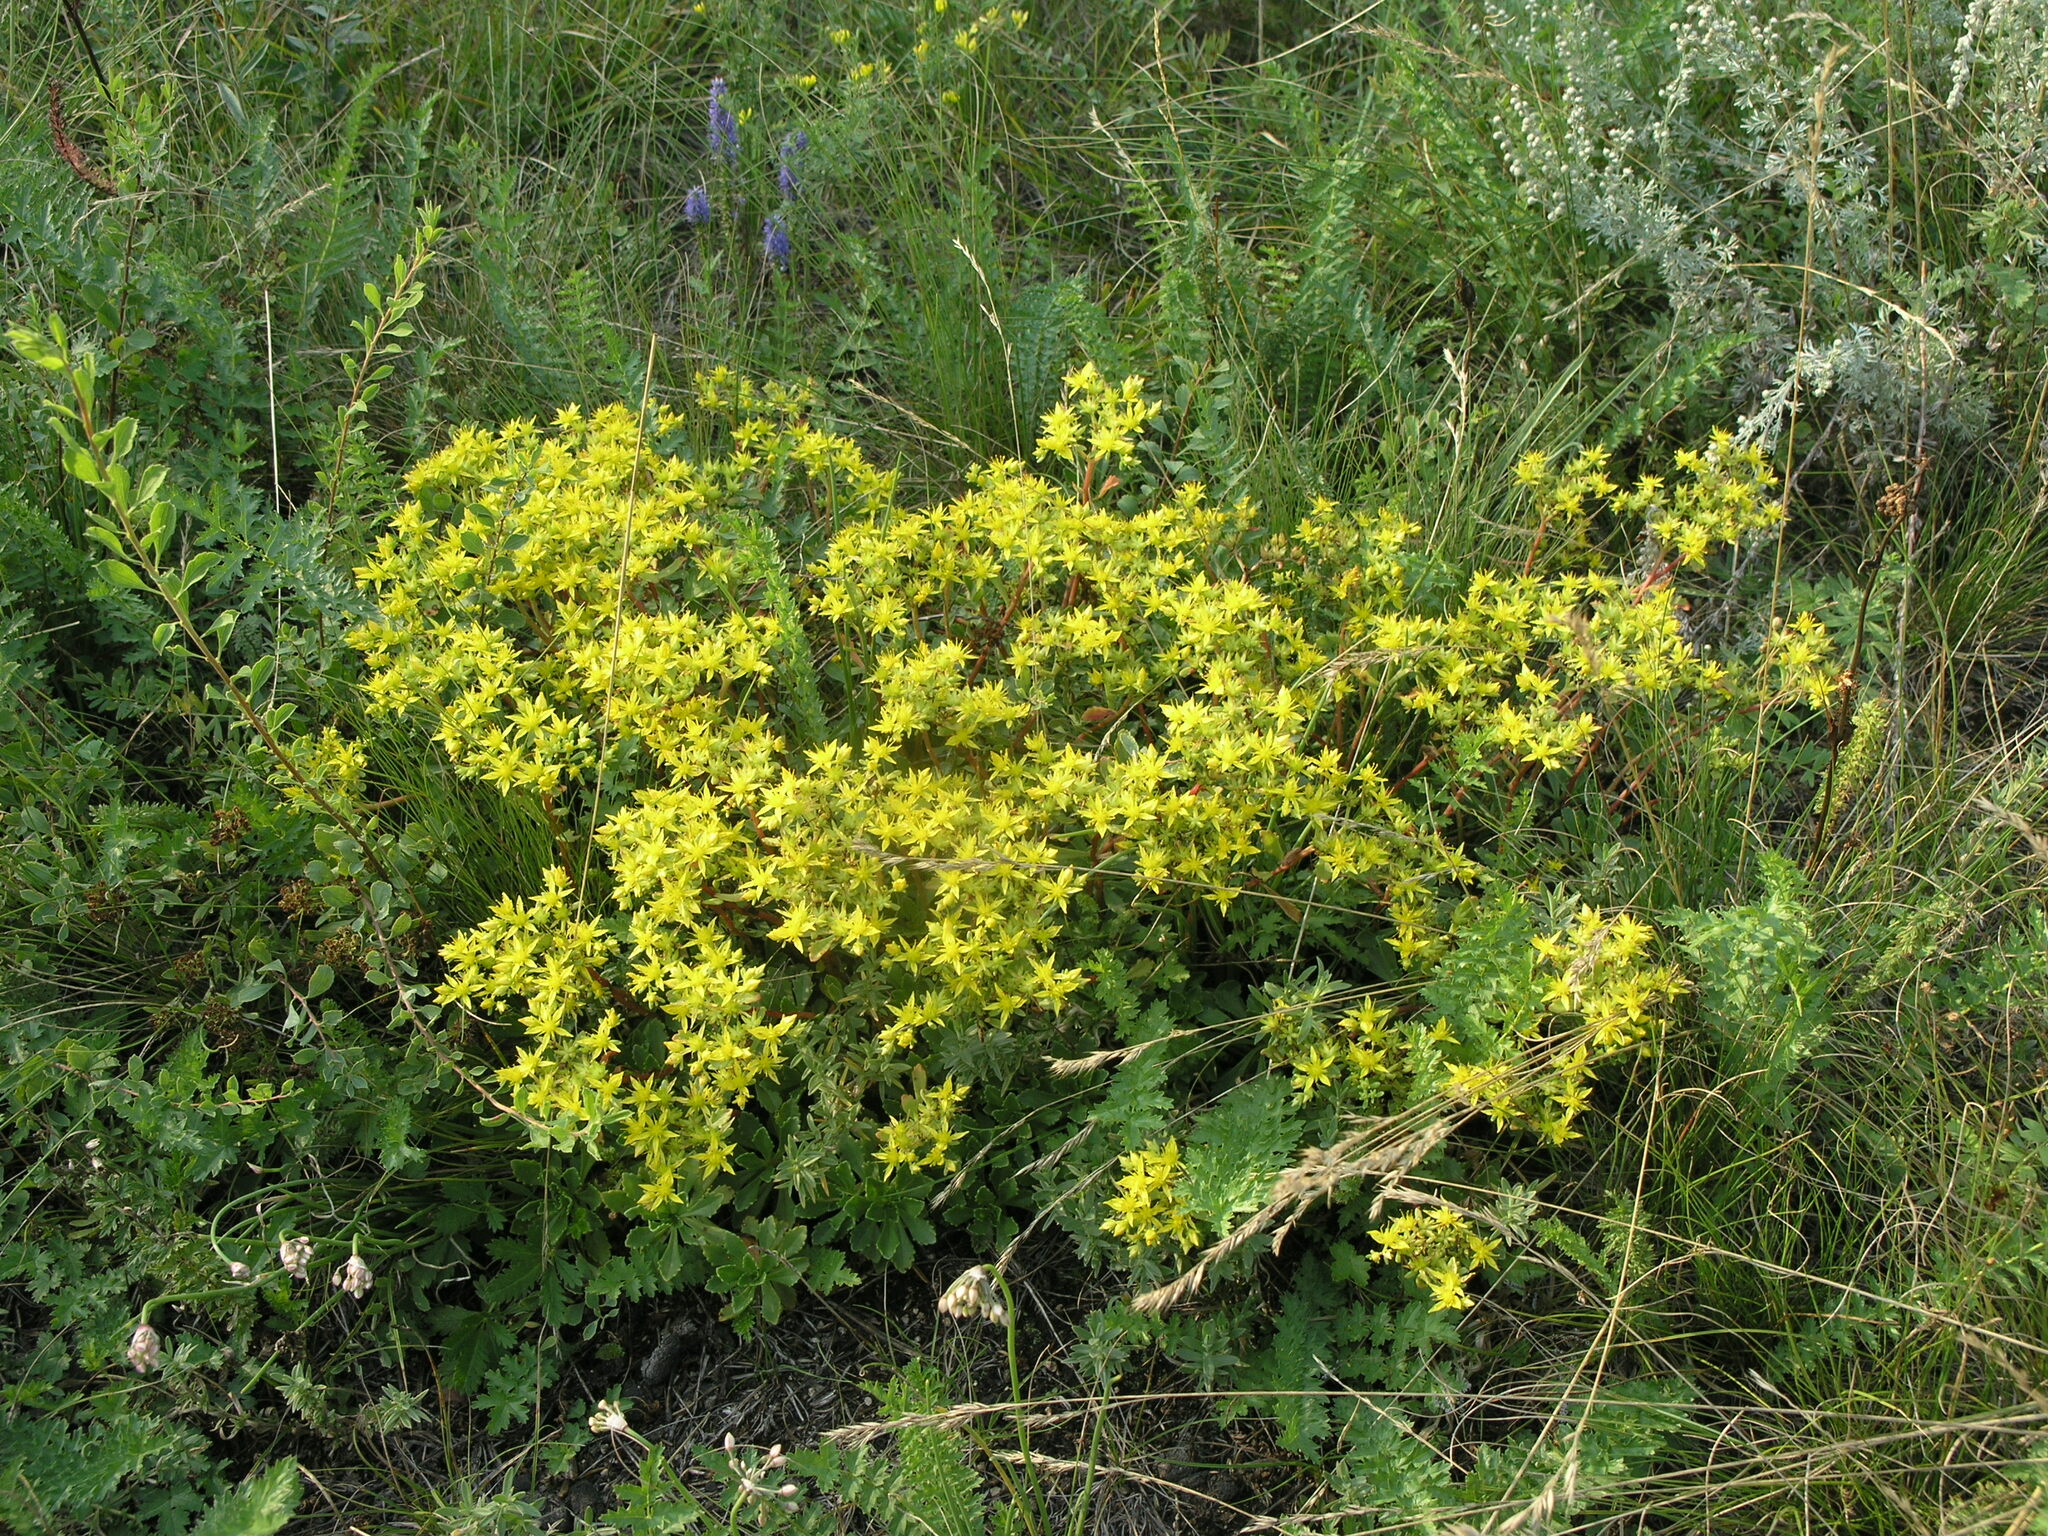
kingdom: Plantae
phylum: Tracheophyta
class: Liliopsida
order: Asparagales
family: Amaryllidaceae
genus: Allium
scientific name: Allium rubens
